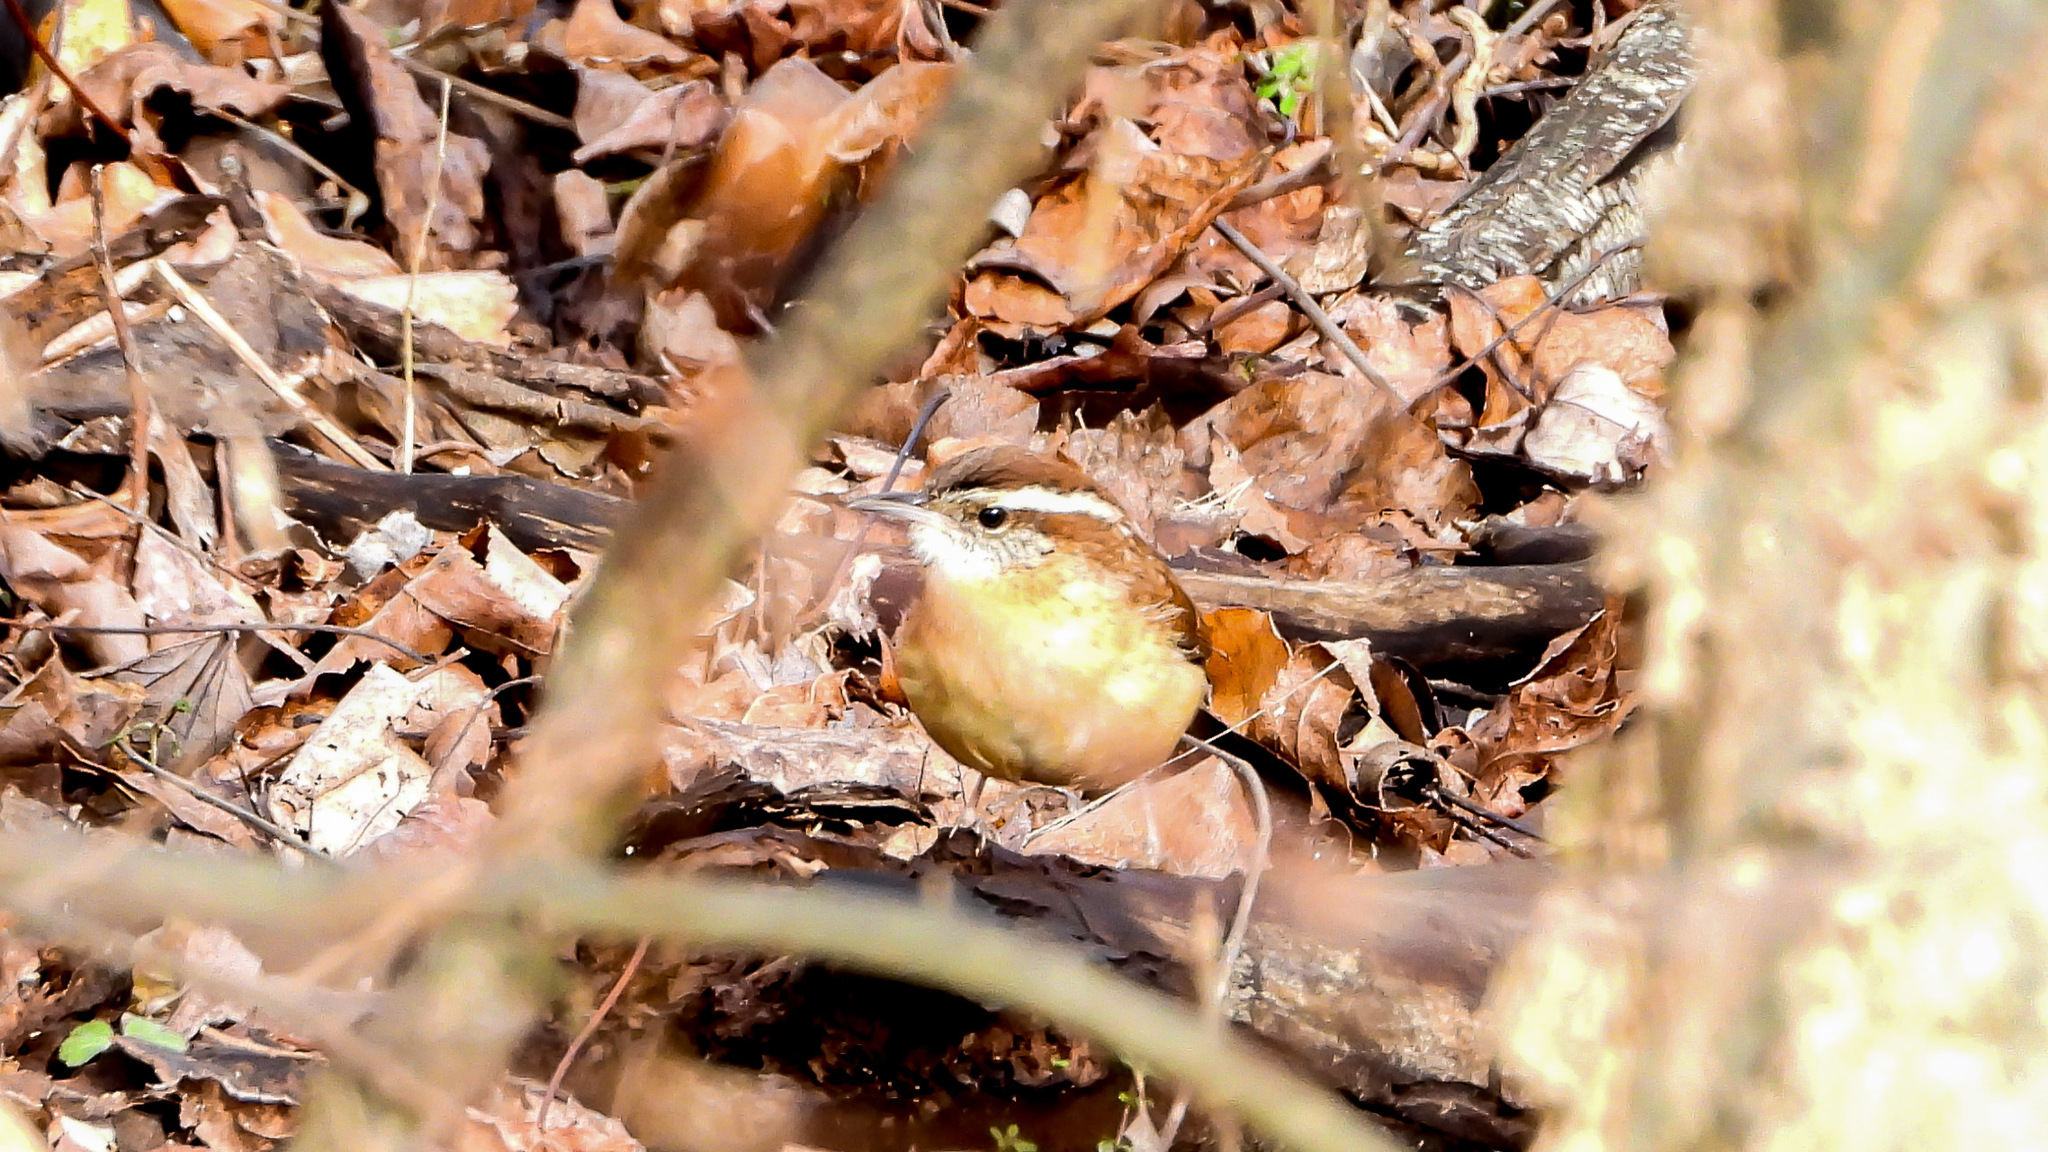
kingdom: Animalia
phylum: Chordata
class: Aves
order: Passeriformes
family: Troglodytidae
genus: Thryothorus
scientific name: Thryothorus ludovicianus
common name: Carolina wren
